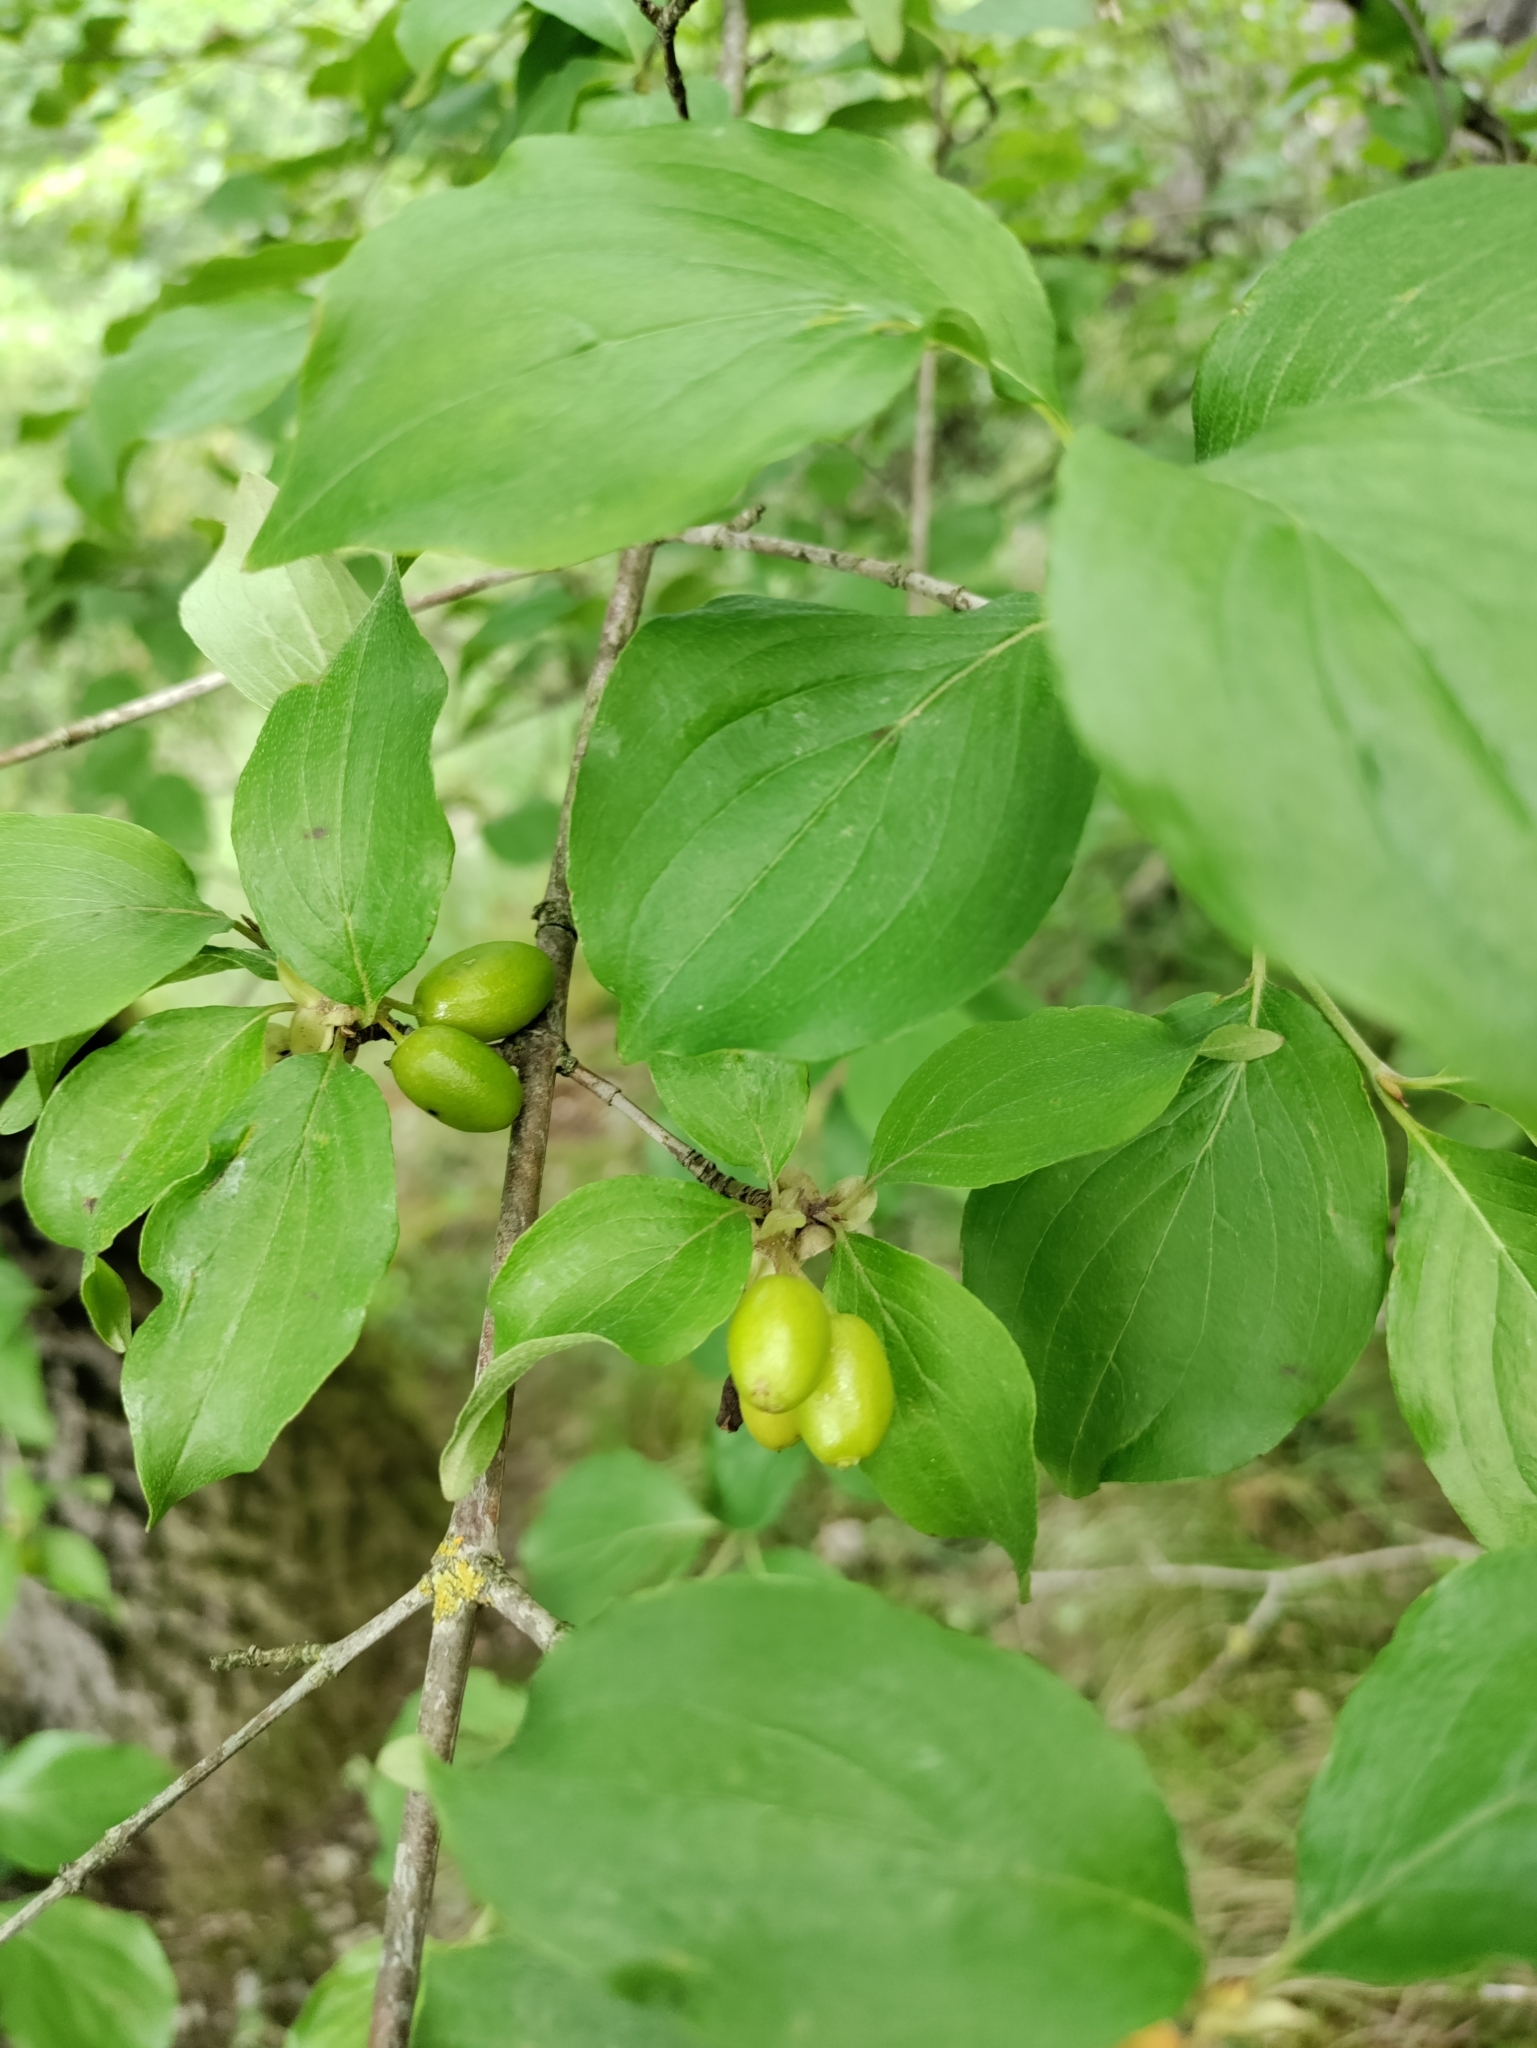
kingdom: Plantae
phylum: Tracheophyta
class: Magnoliopsida
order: Cornales
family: Cornaceae
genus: Cornus
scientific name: Cornus mas
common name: Cornelian-cherry
